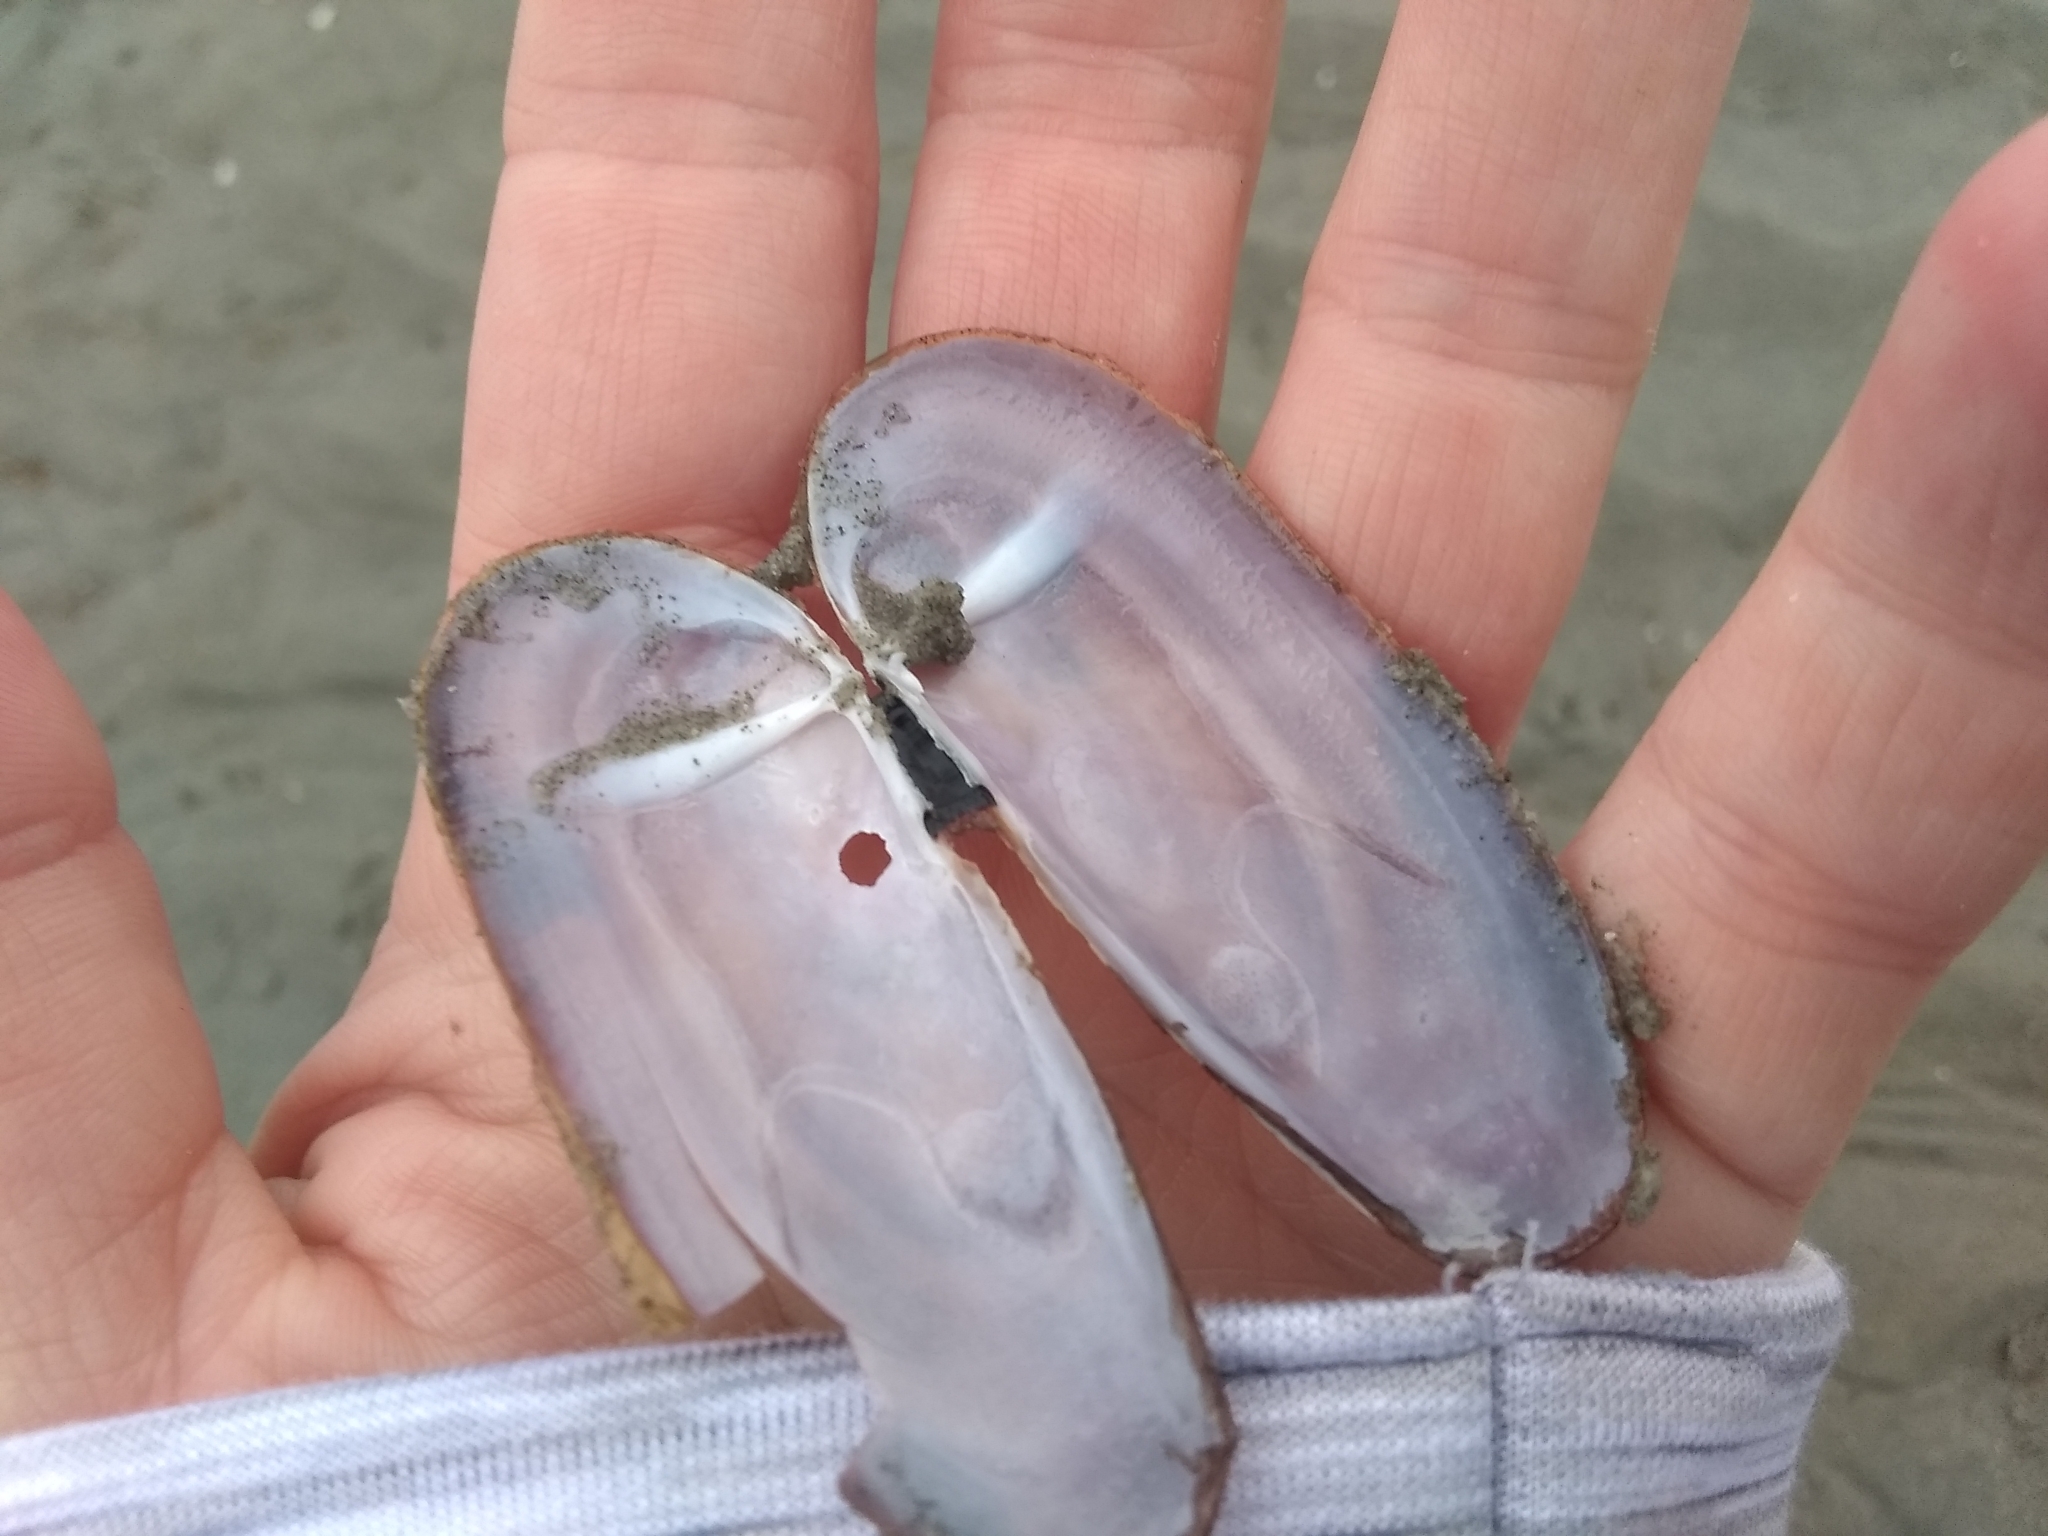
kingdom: Animalia
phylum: Mollusca
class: Bivalvia
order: Adapedonta
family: Pharidae
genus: Siliqua
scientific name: Siliqua costata
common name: Atlantic razor
